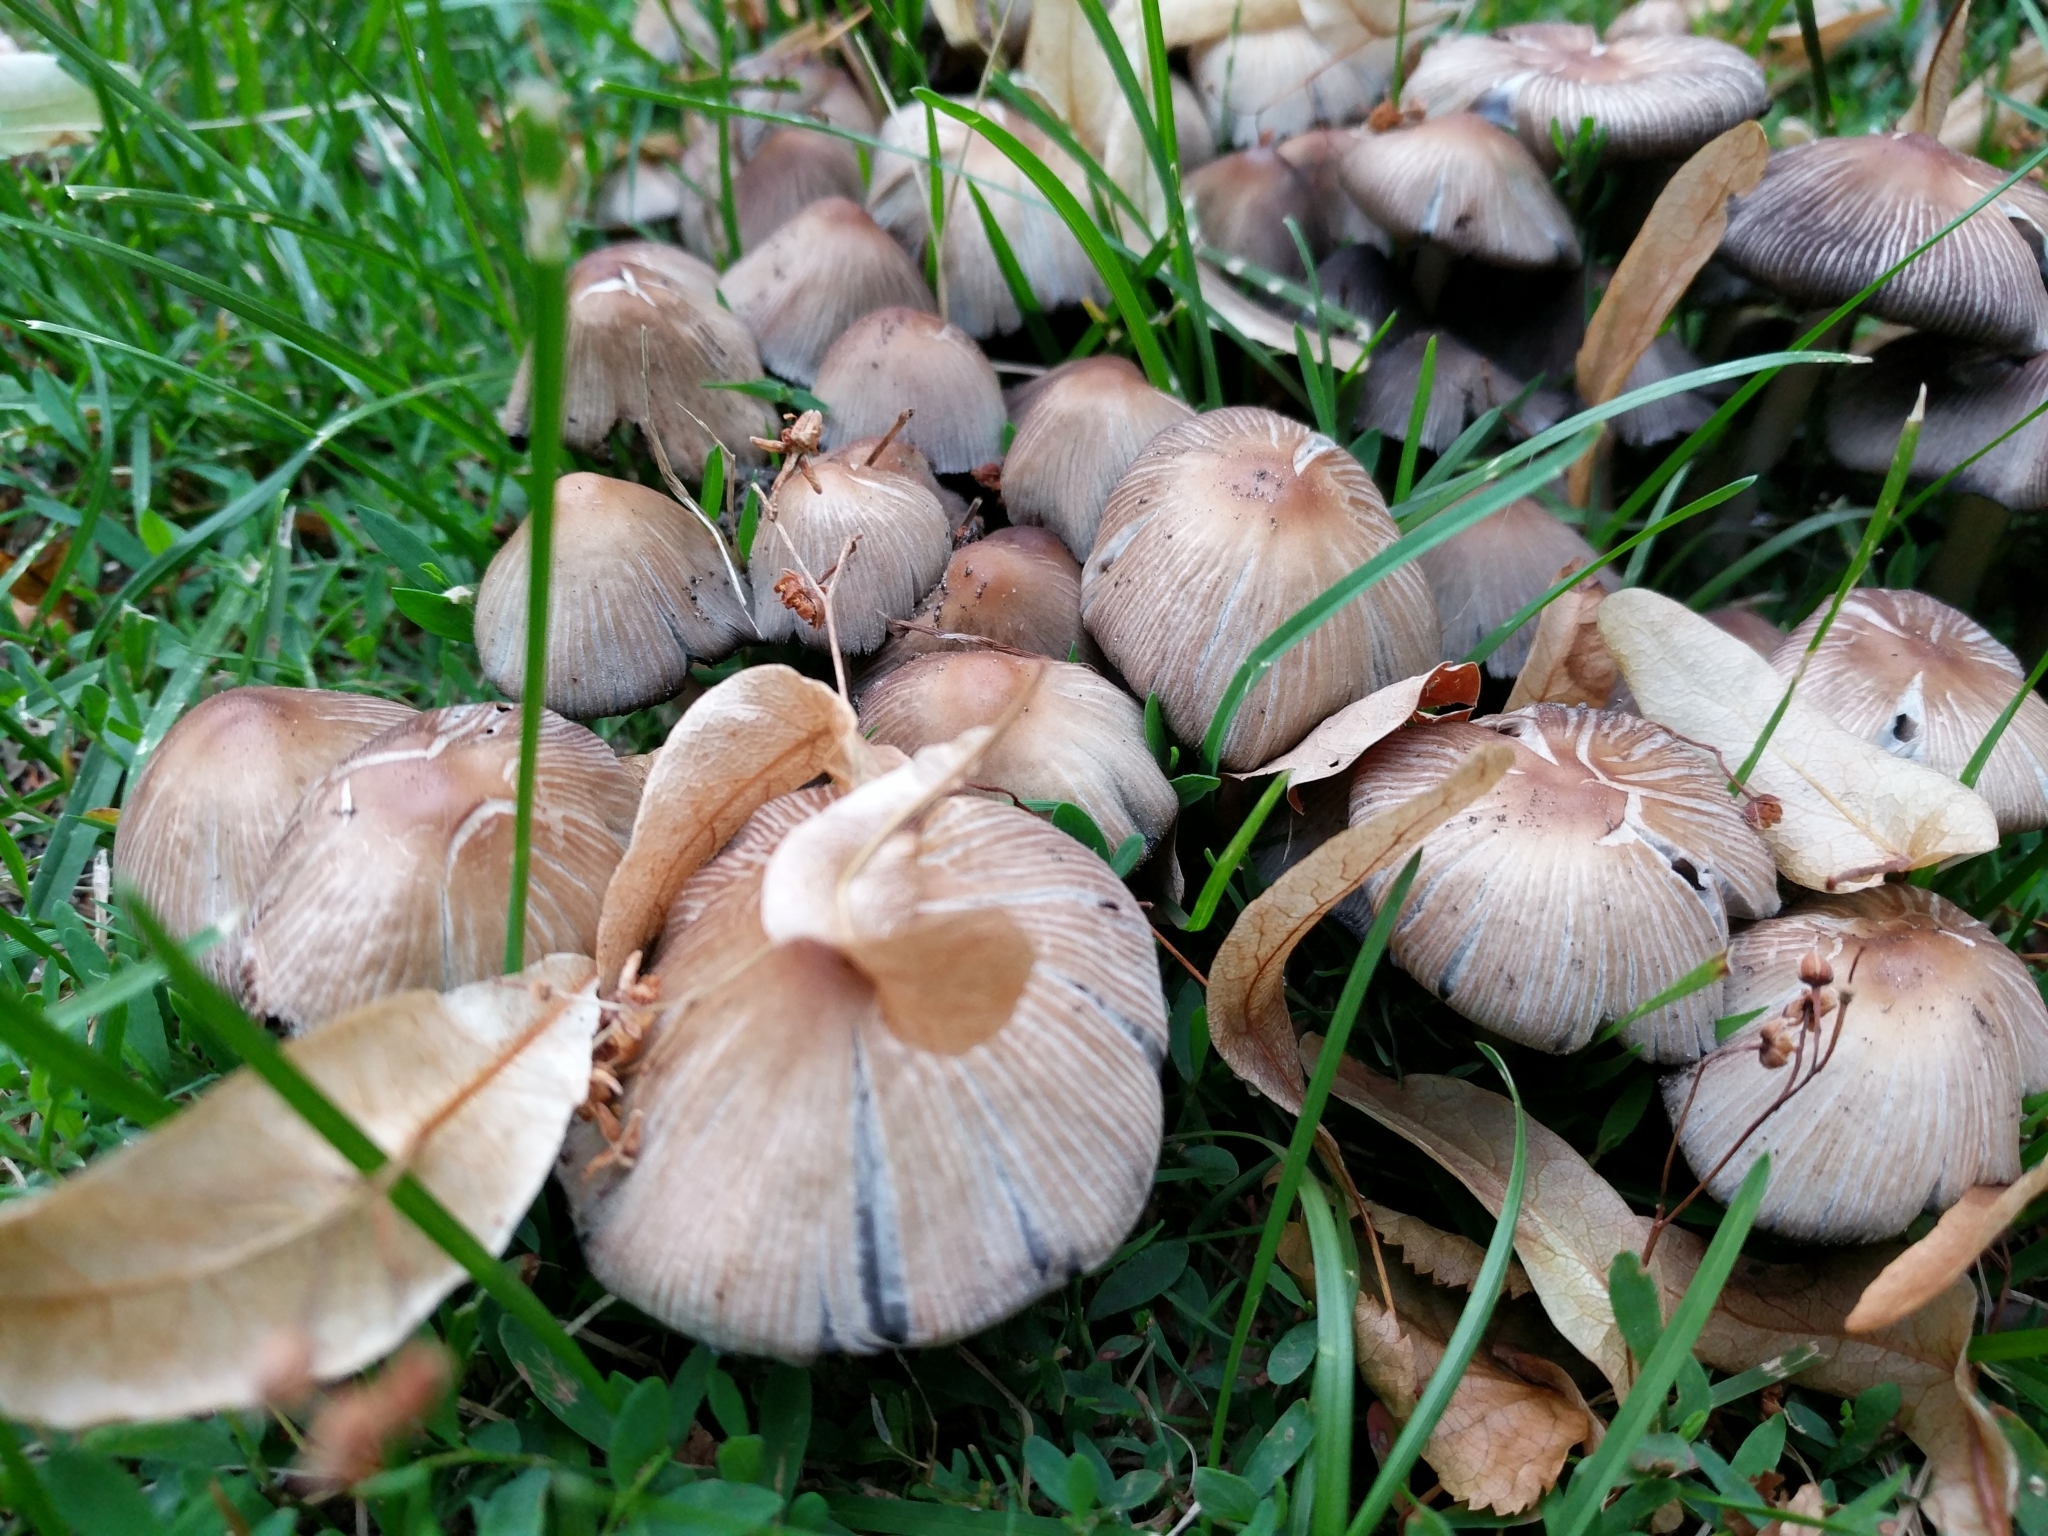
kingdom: Fungi
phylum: Basidiomycota
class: Agaricomycetes
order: Agaricales
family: Psathyrellaceae
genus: Coprinellus
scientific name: Coprinellus micaceus
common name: Glistening ink-cap
